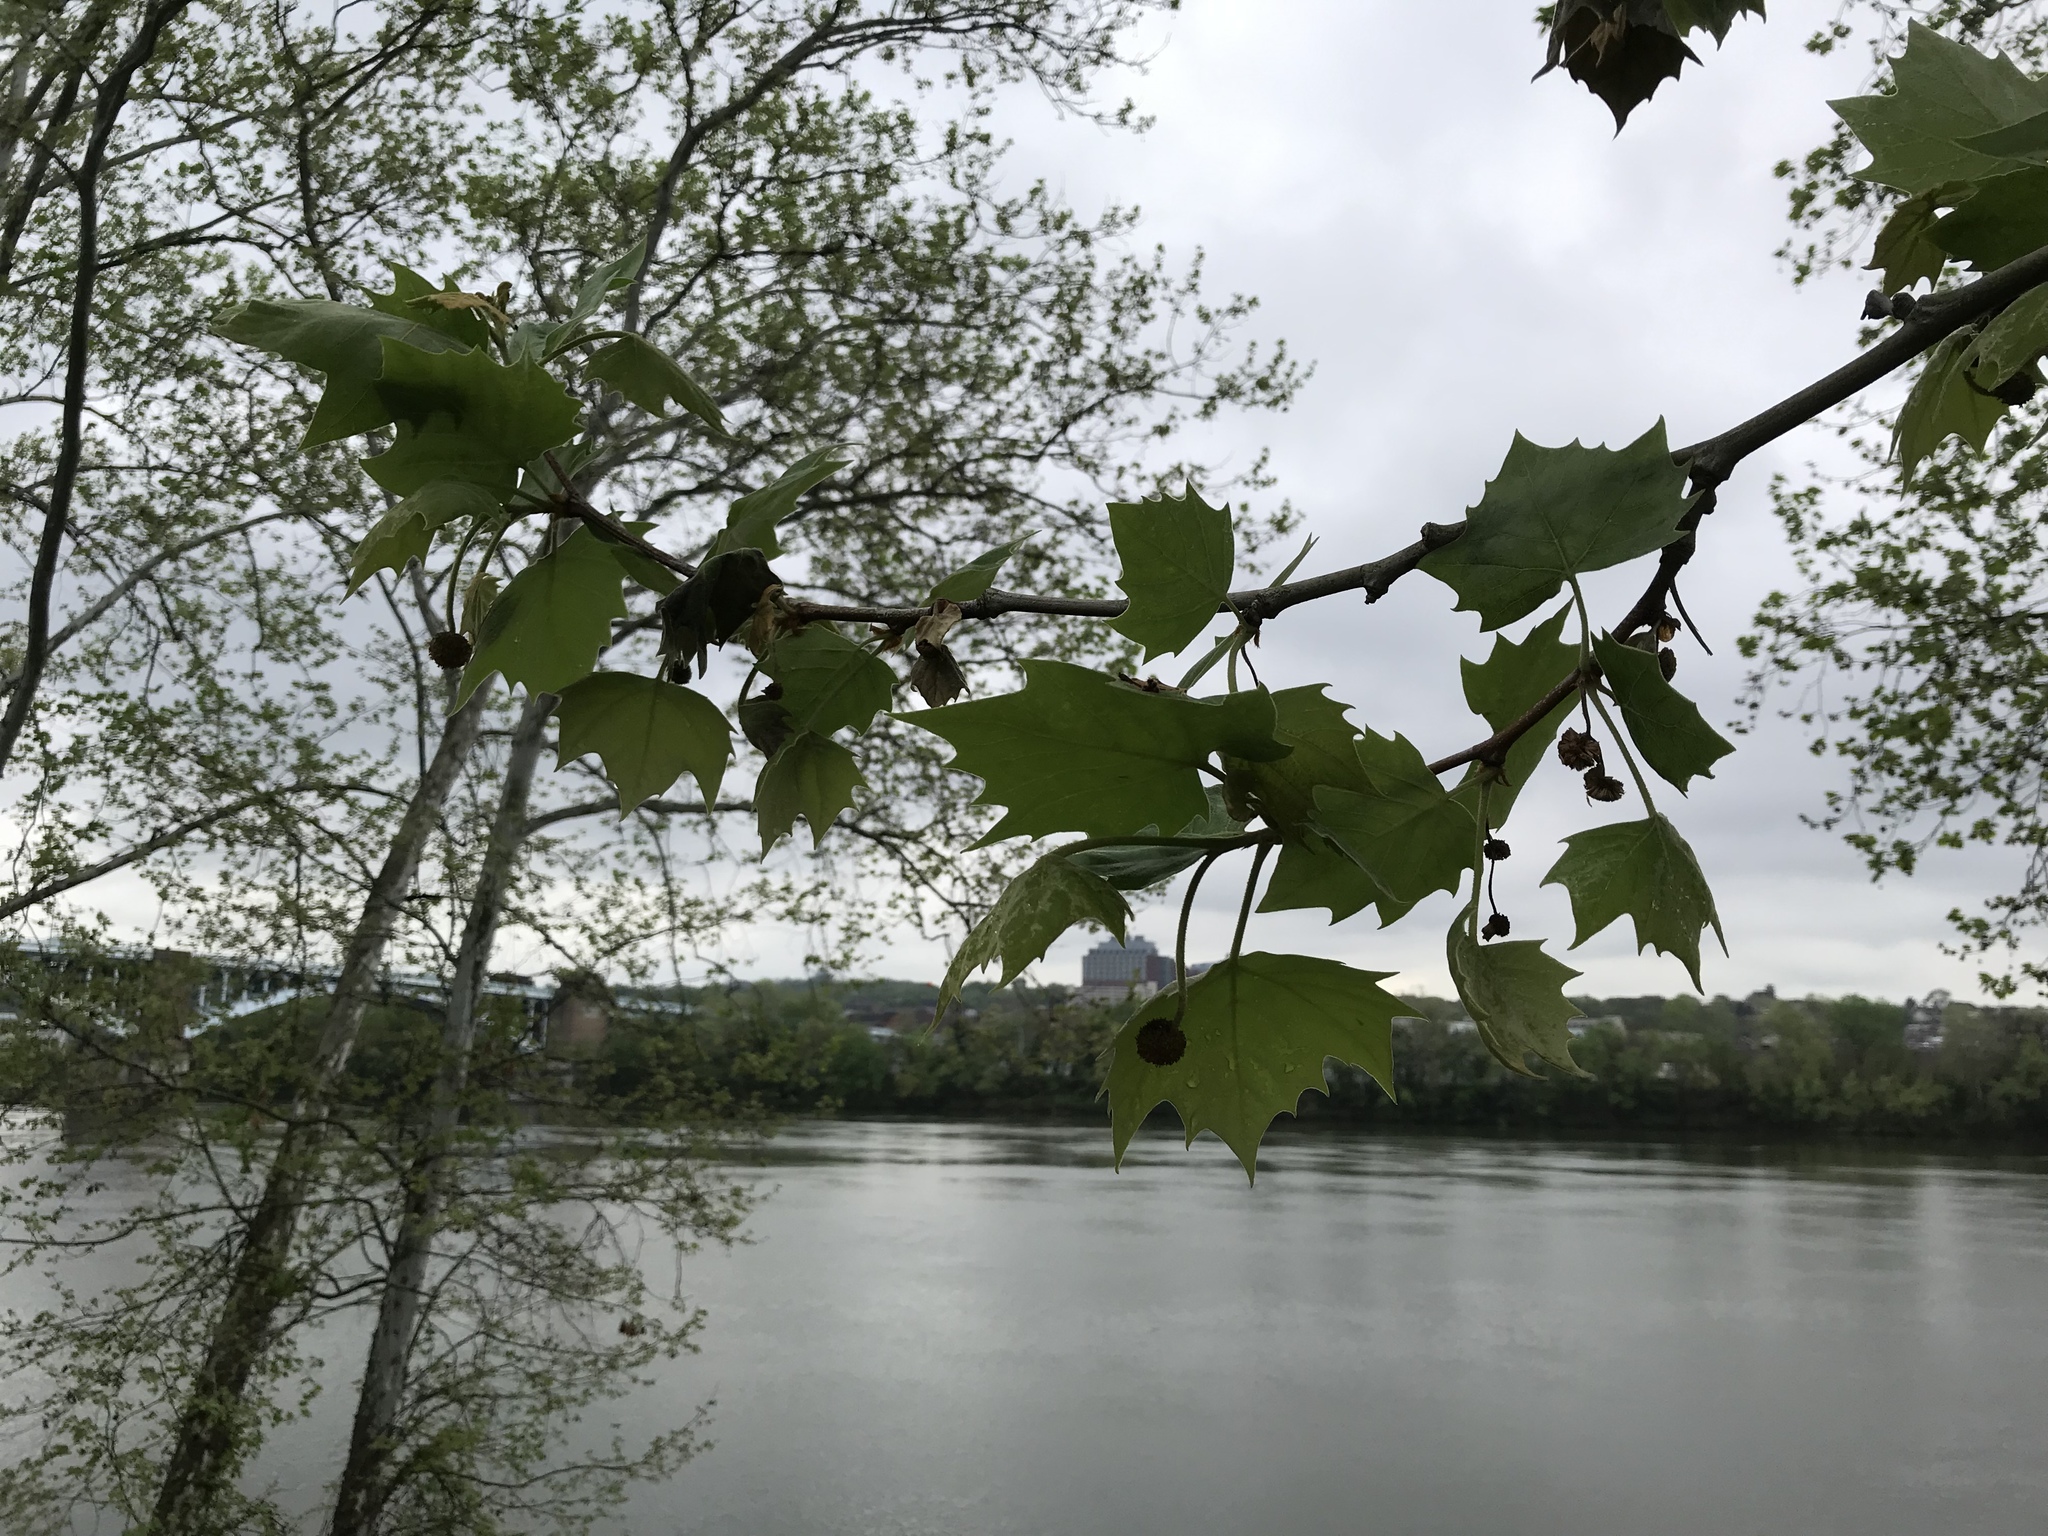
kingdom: Plantae
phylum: Tracheophyta
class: Magnoliopsida
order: Proteales
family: Platanaceae
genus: Platanus
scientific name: Platanus occidentalis
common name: American sycamore
